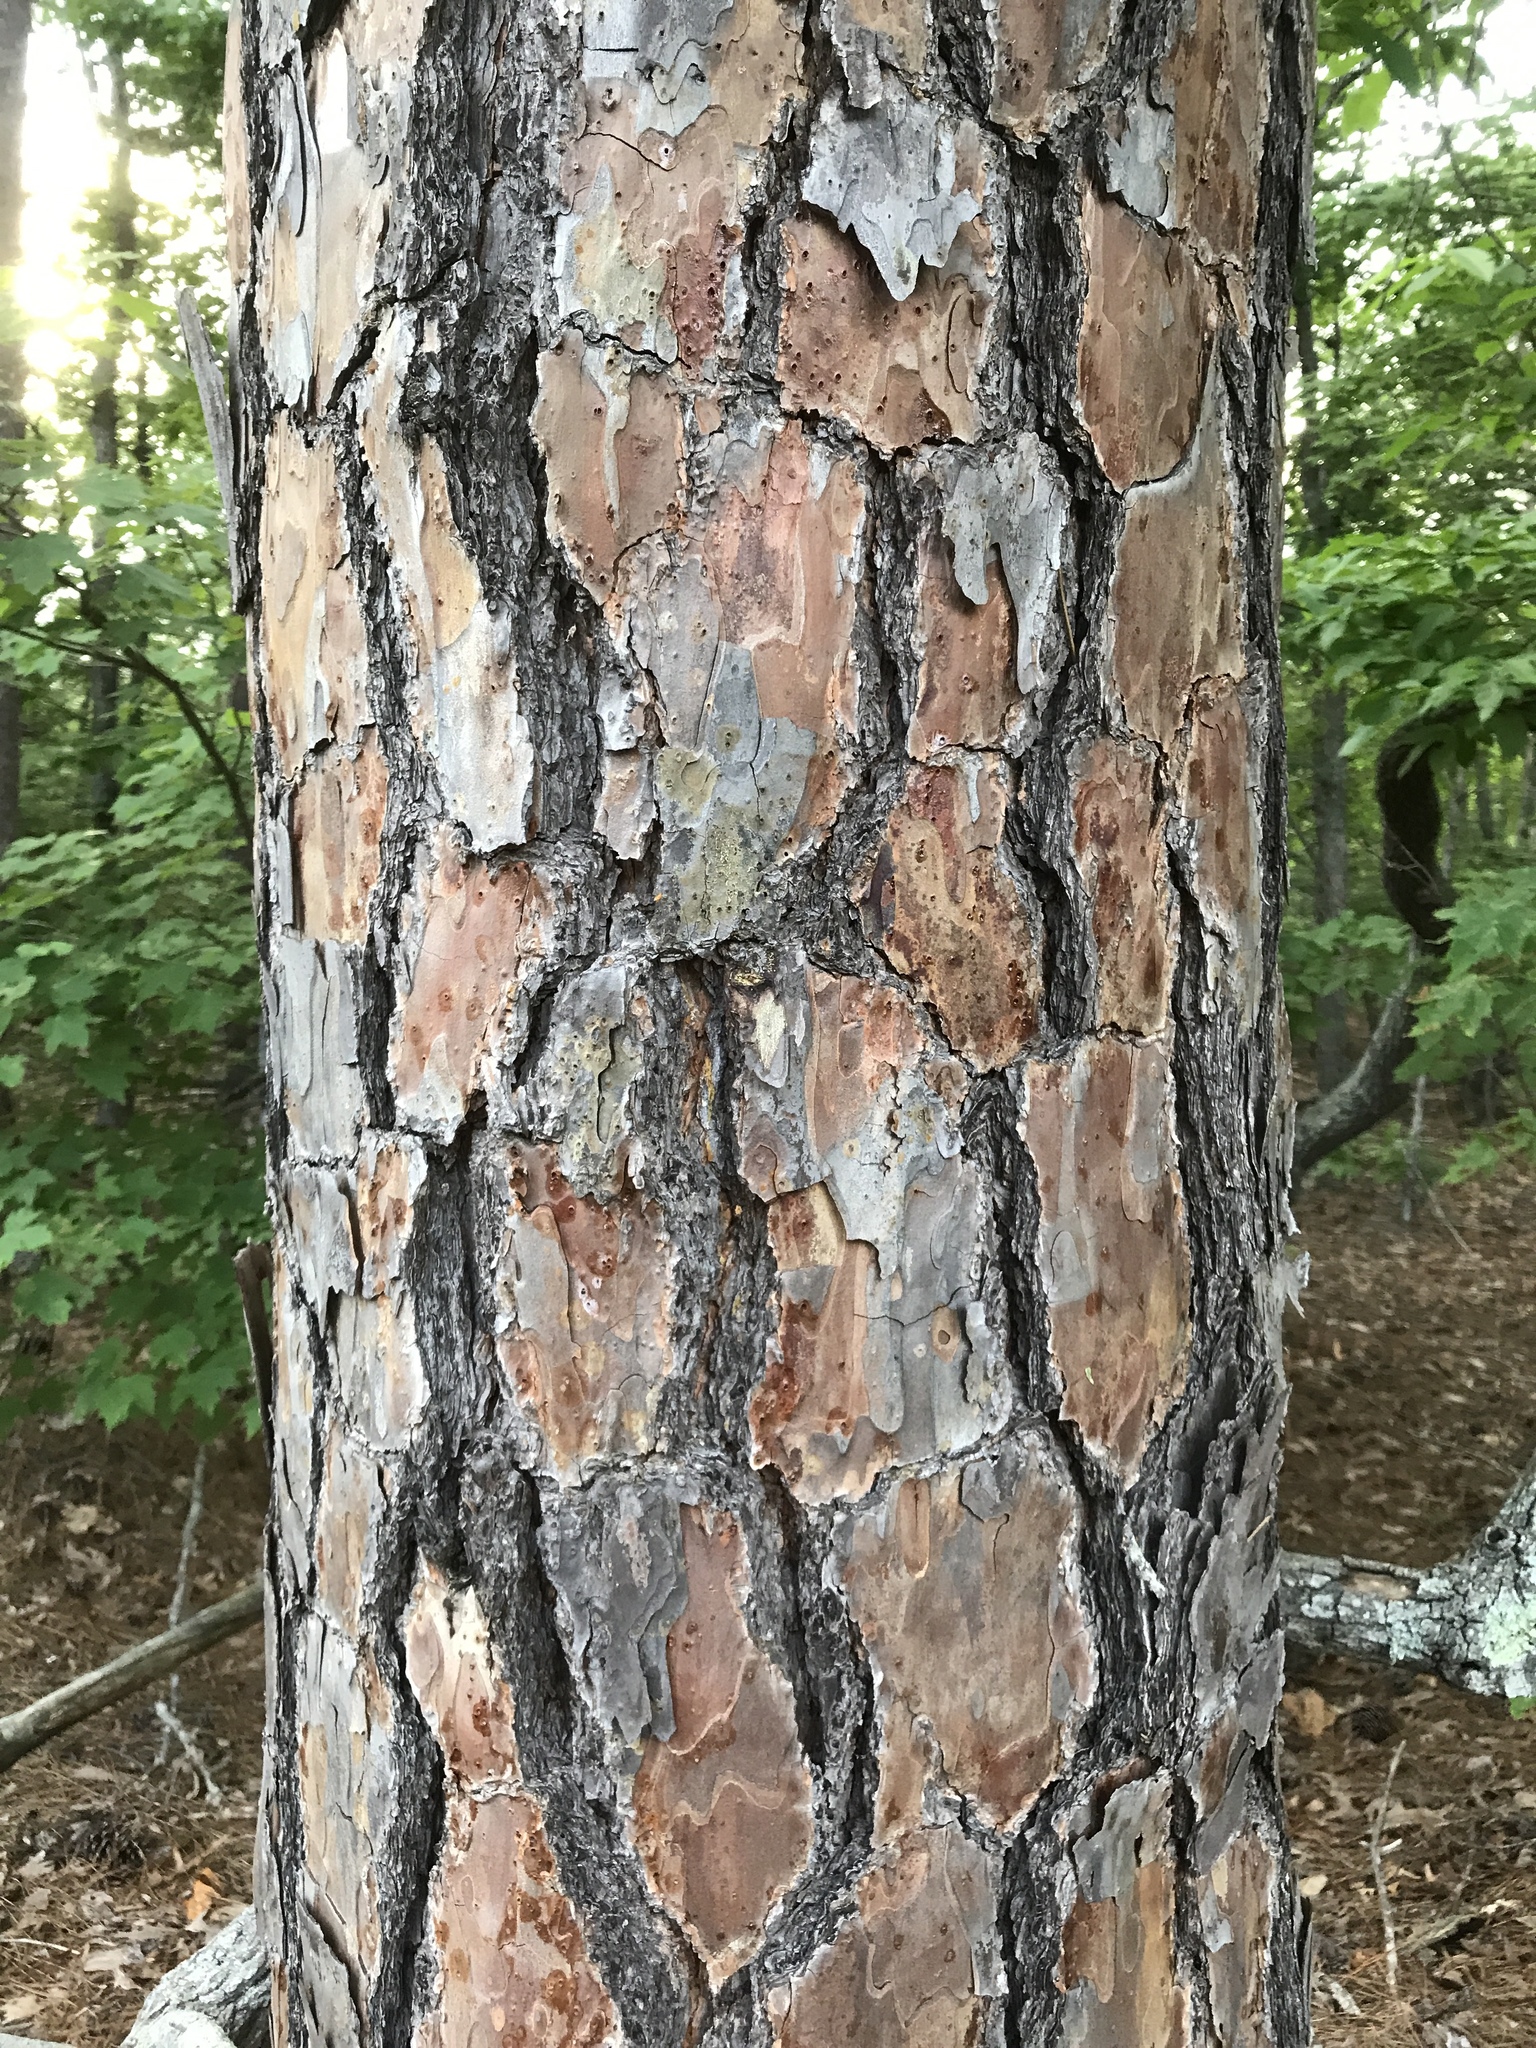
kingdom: Plantae
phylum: Tracheophyta
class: Pinopsida
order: Pinales
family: Pinaceae
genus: Pinus
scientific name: Pinus echinata
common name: Shortleaf pine
